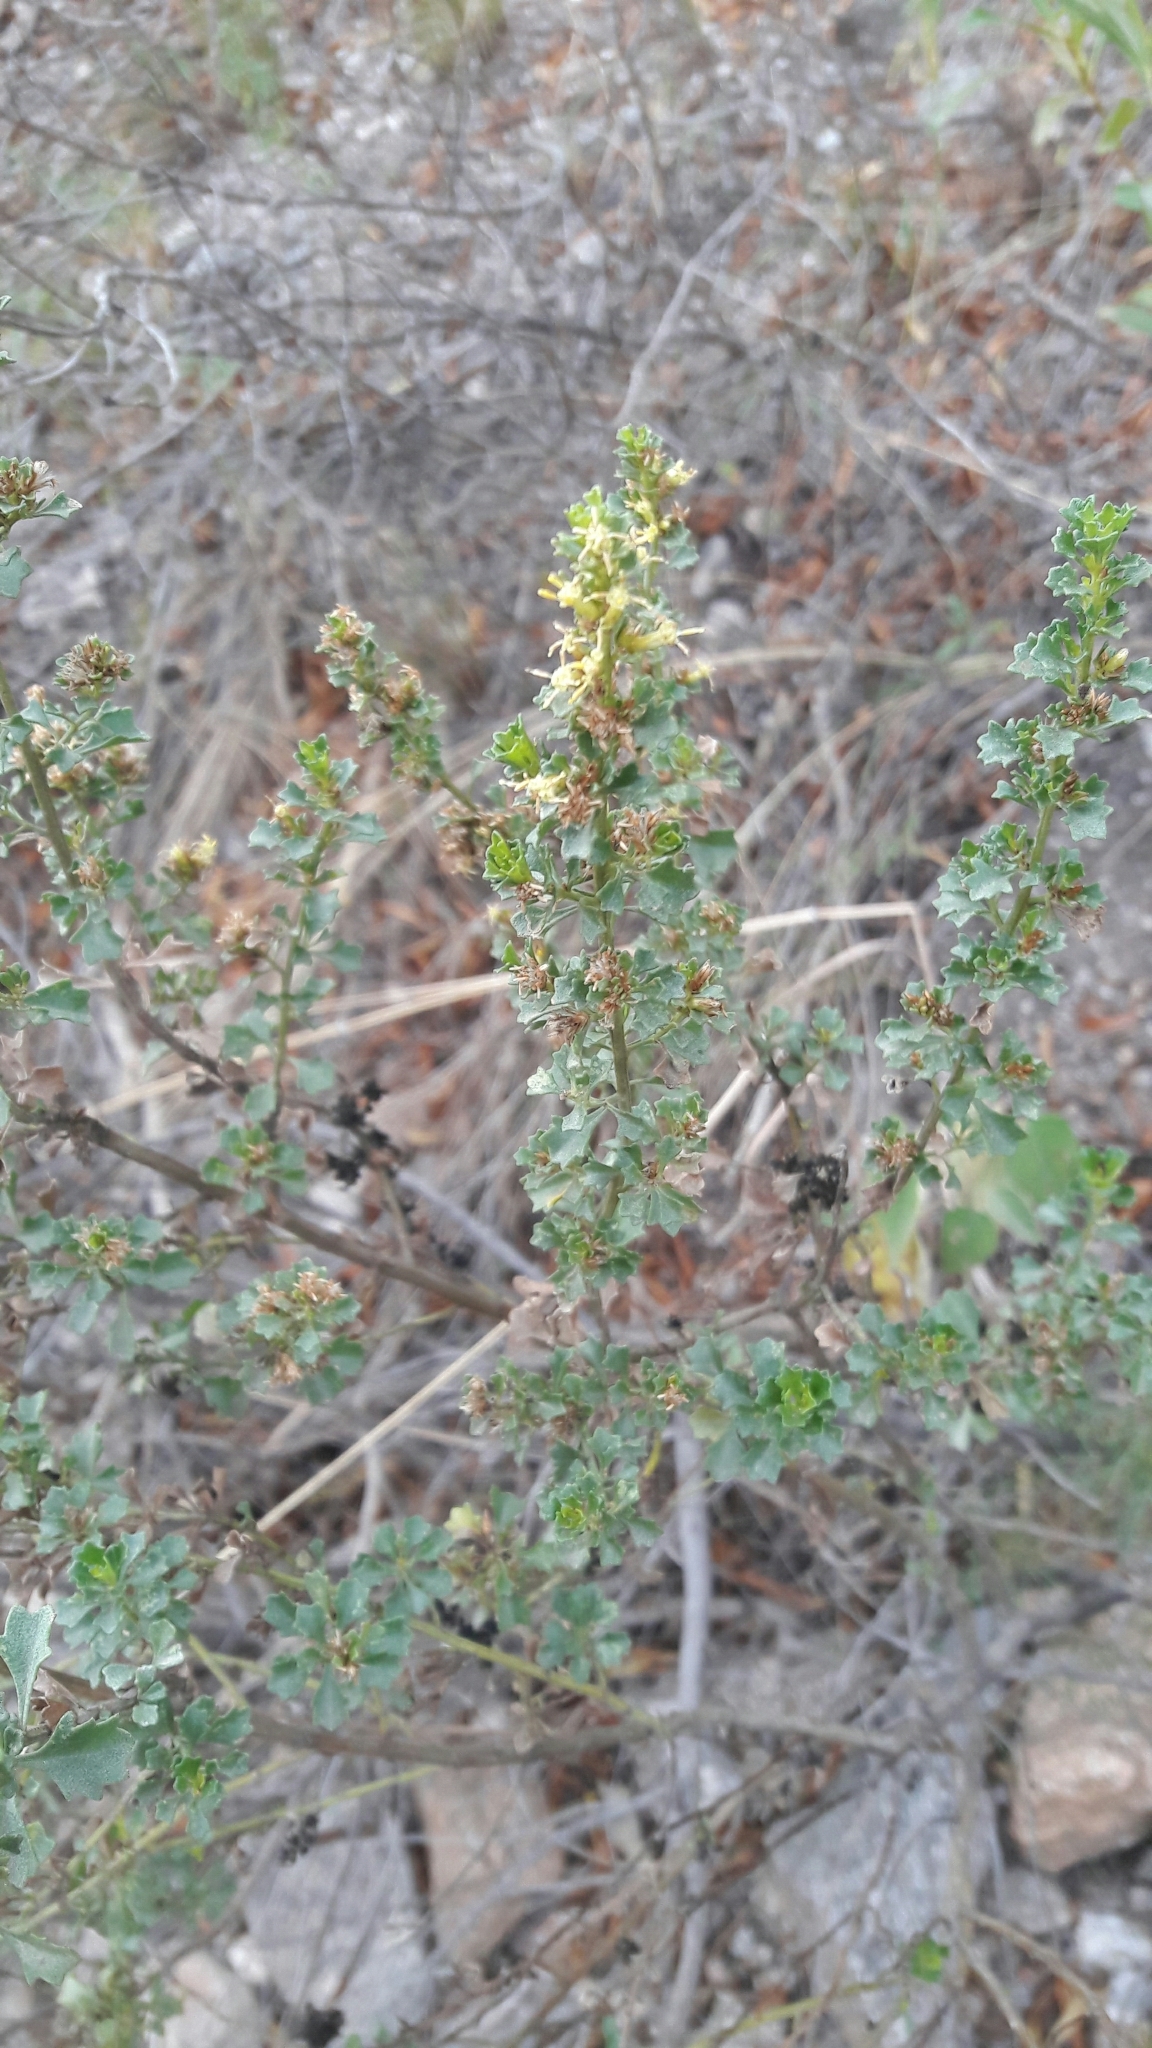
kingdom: Plantae
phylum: Tracheophyta
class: Magnoliopsida
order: Asterales
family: Asteraceae
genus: Baccharis
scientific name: Baccharis flabellata
